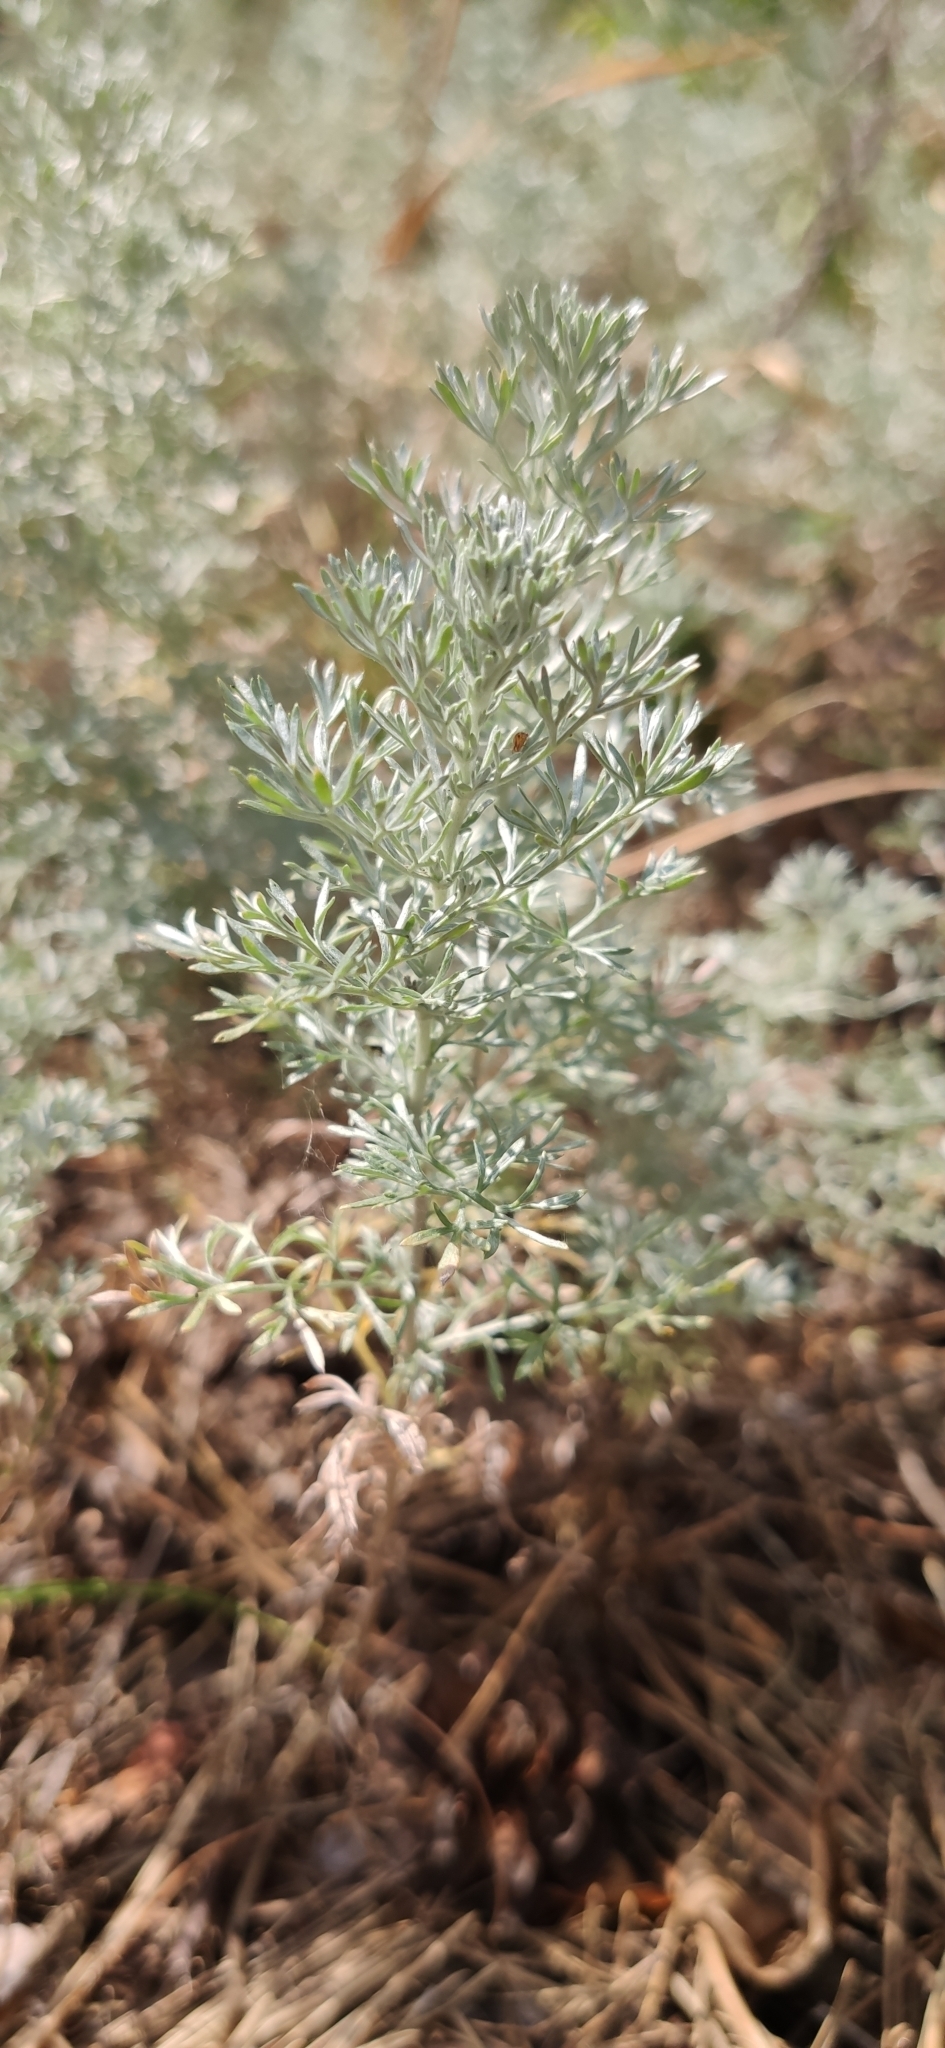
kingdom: Plantae
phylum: Tracheophyta
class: Magnoliopsida
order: Asterales
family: Asteraceae
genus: Artemisia
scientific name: Artemisia austriaca
